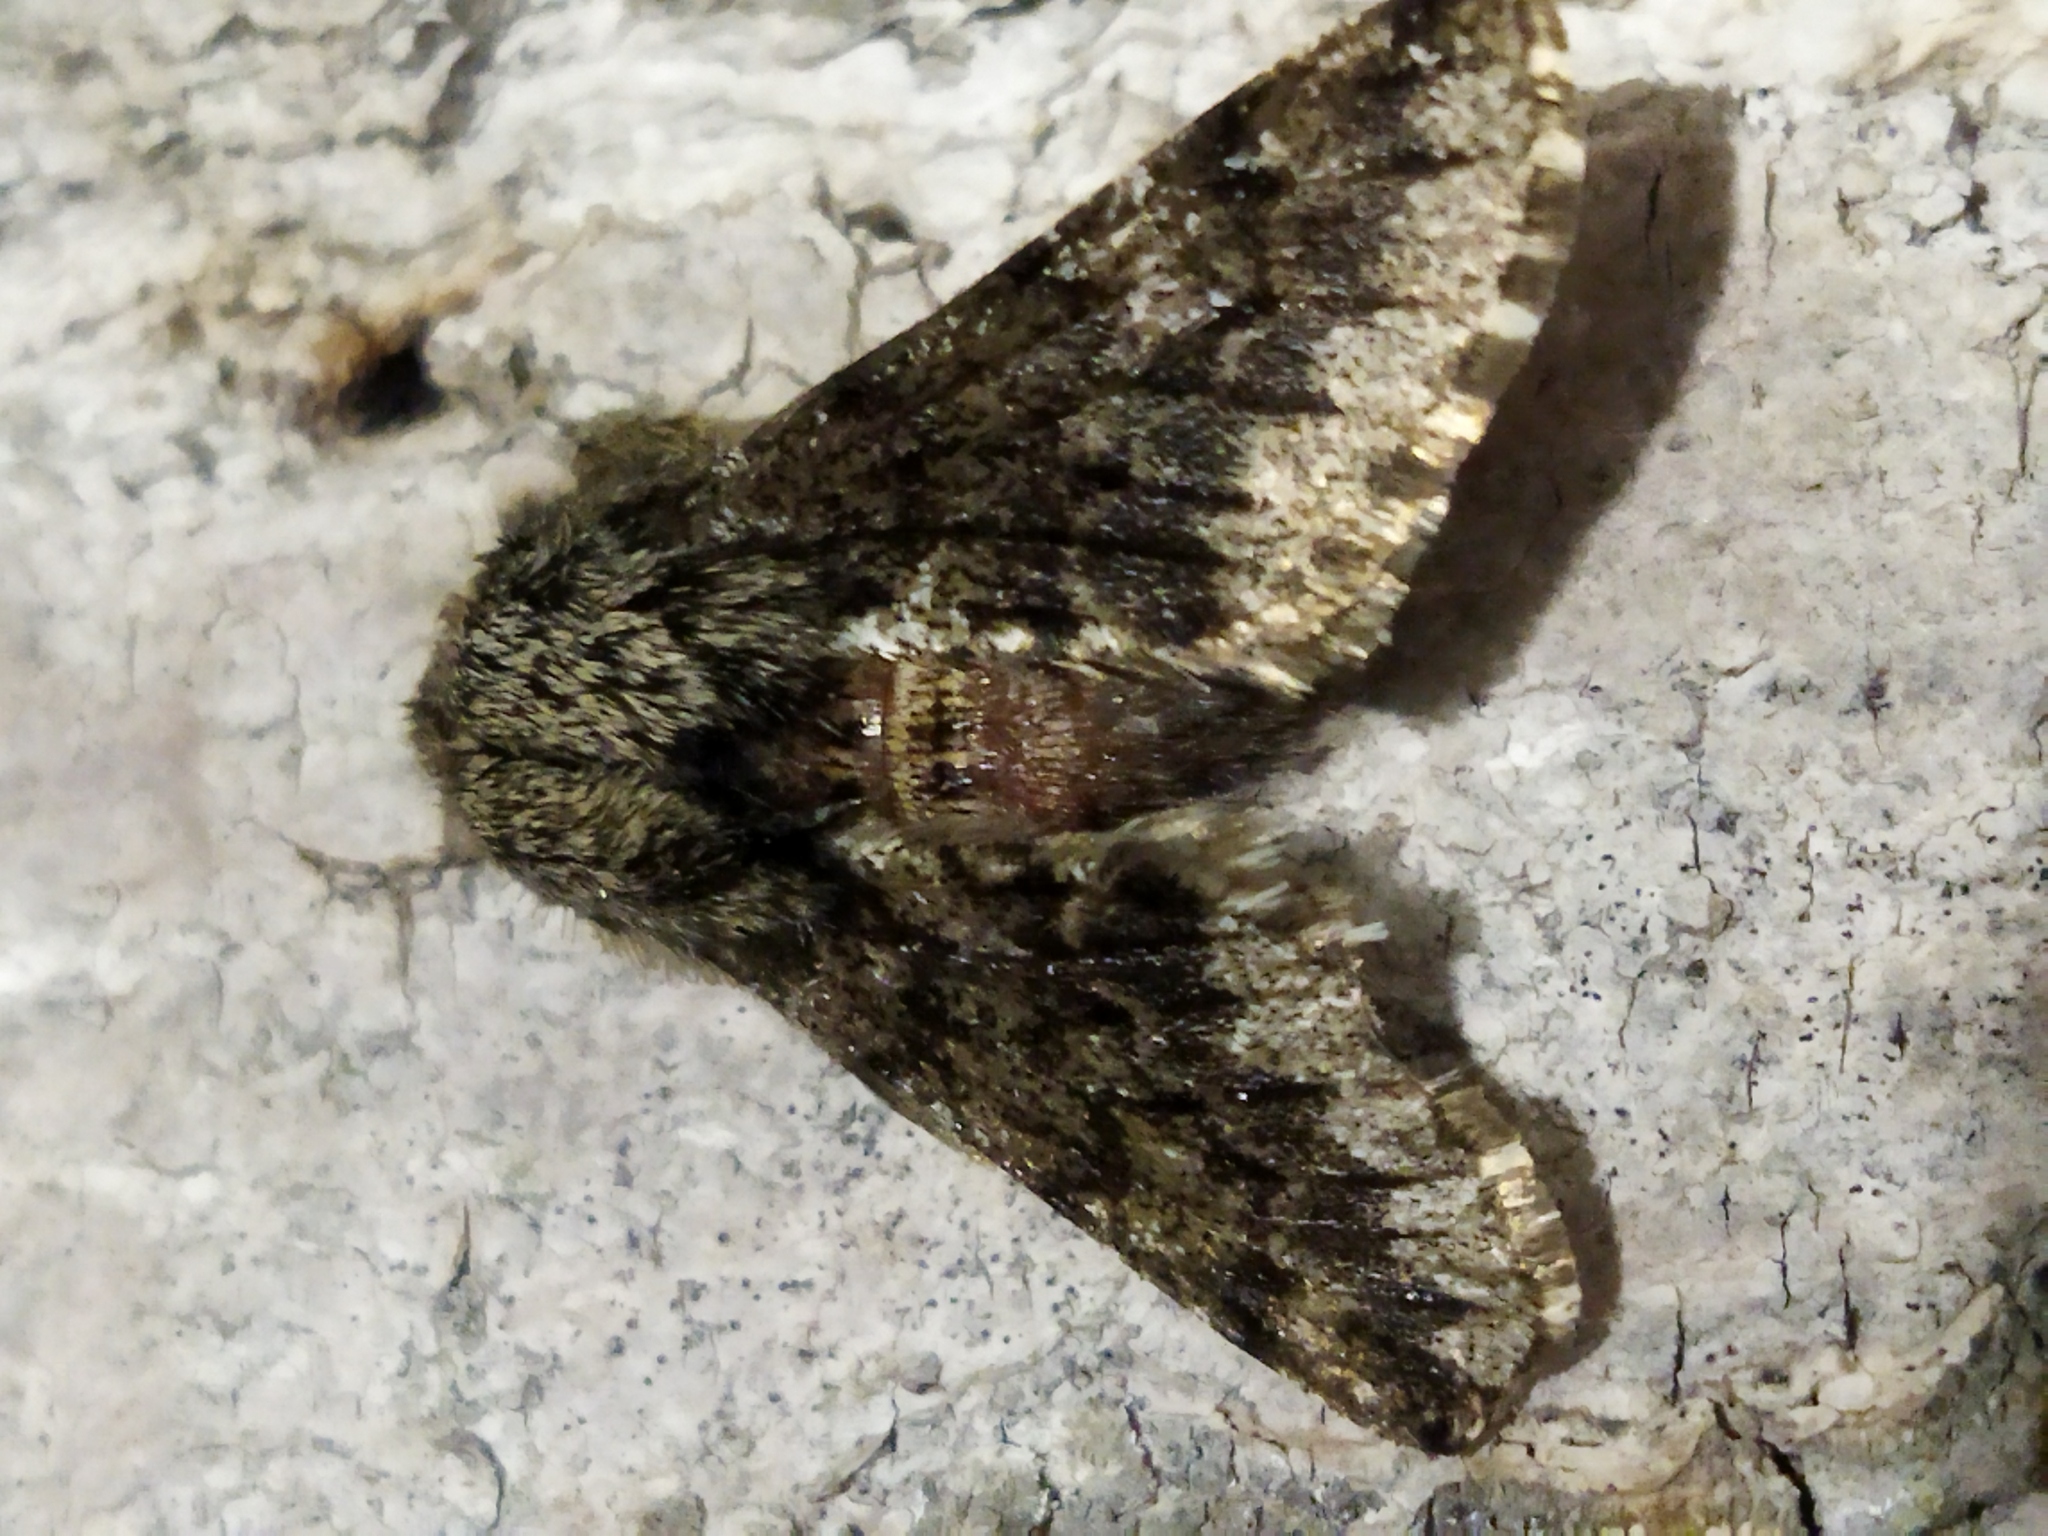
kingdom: Animalia
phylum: Arthropoda
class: Insecta
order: Lepidoptera
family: Geometridae
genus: Apocheima
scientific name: Apocheima hispidaria
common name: Small brindled beauty
